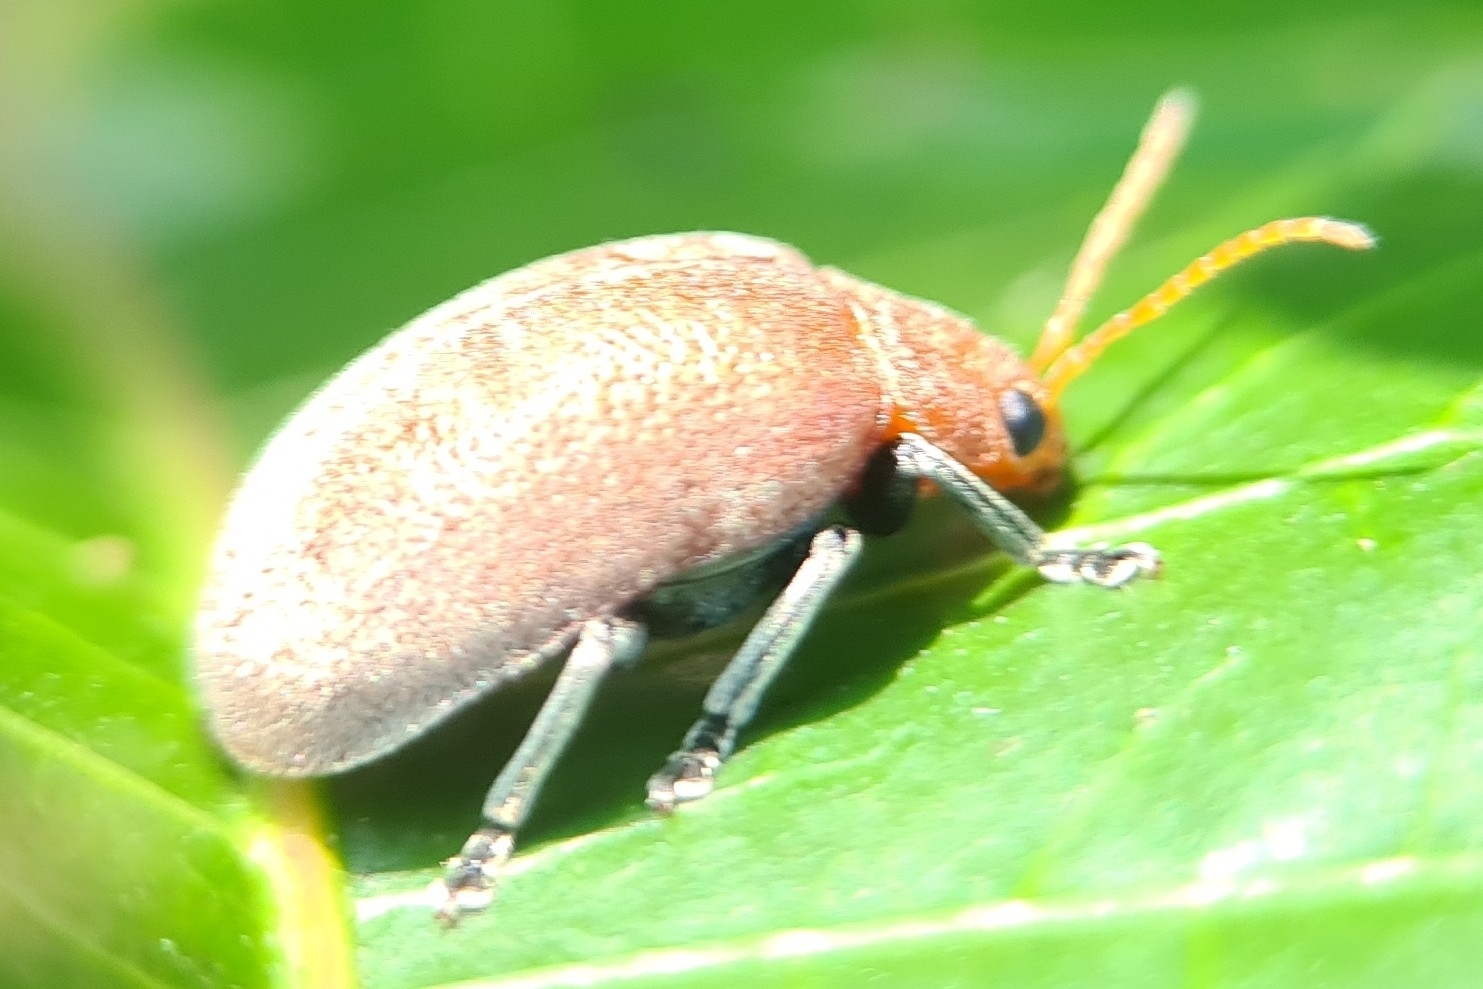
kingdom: Animalia
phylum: Arthropoda
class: Insecta
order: Coleoptera
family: Chrysomelidae
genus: Menippus
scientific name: Menippus
